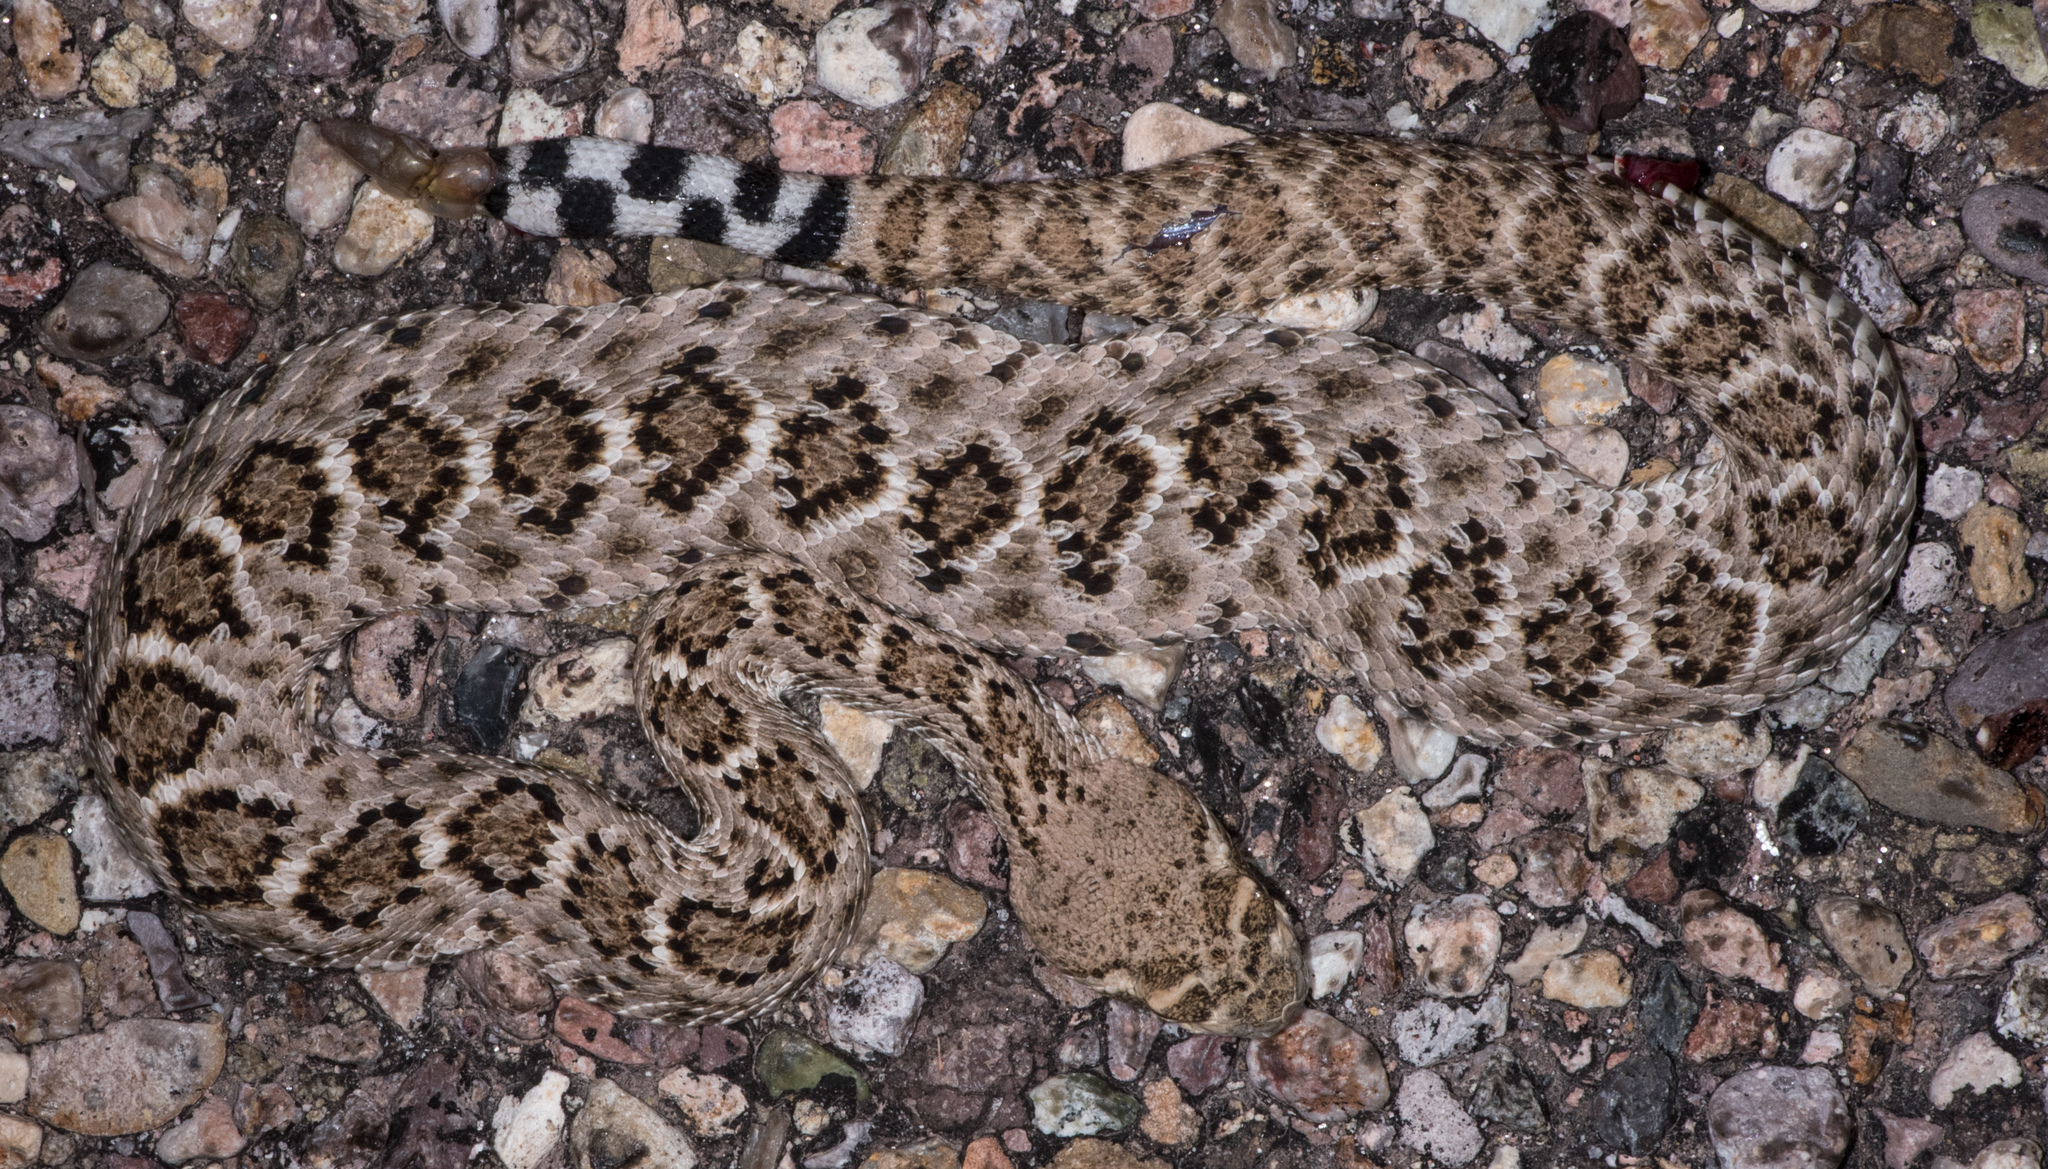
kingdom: Animalia
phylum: Chordata
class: Squamata
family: Viperidae
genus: Crotalus
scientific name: Crotalus atrox
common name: Western diamond-backed rattlesnake
